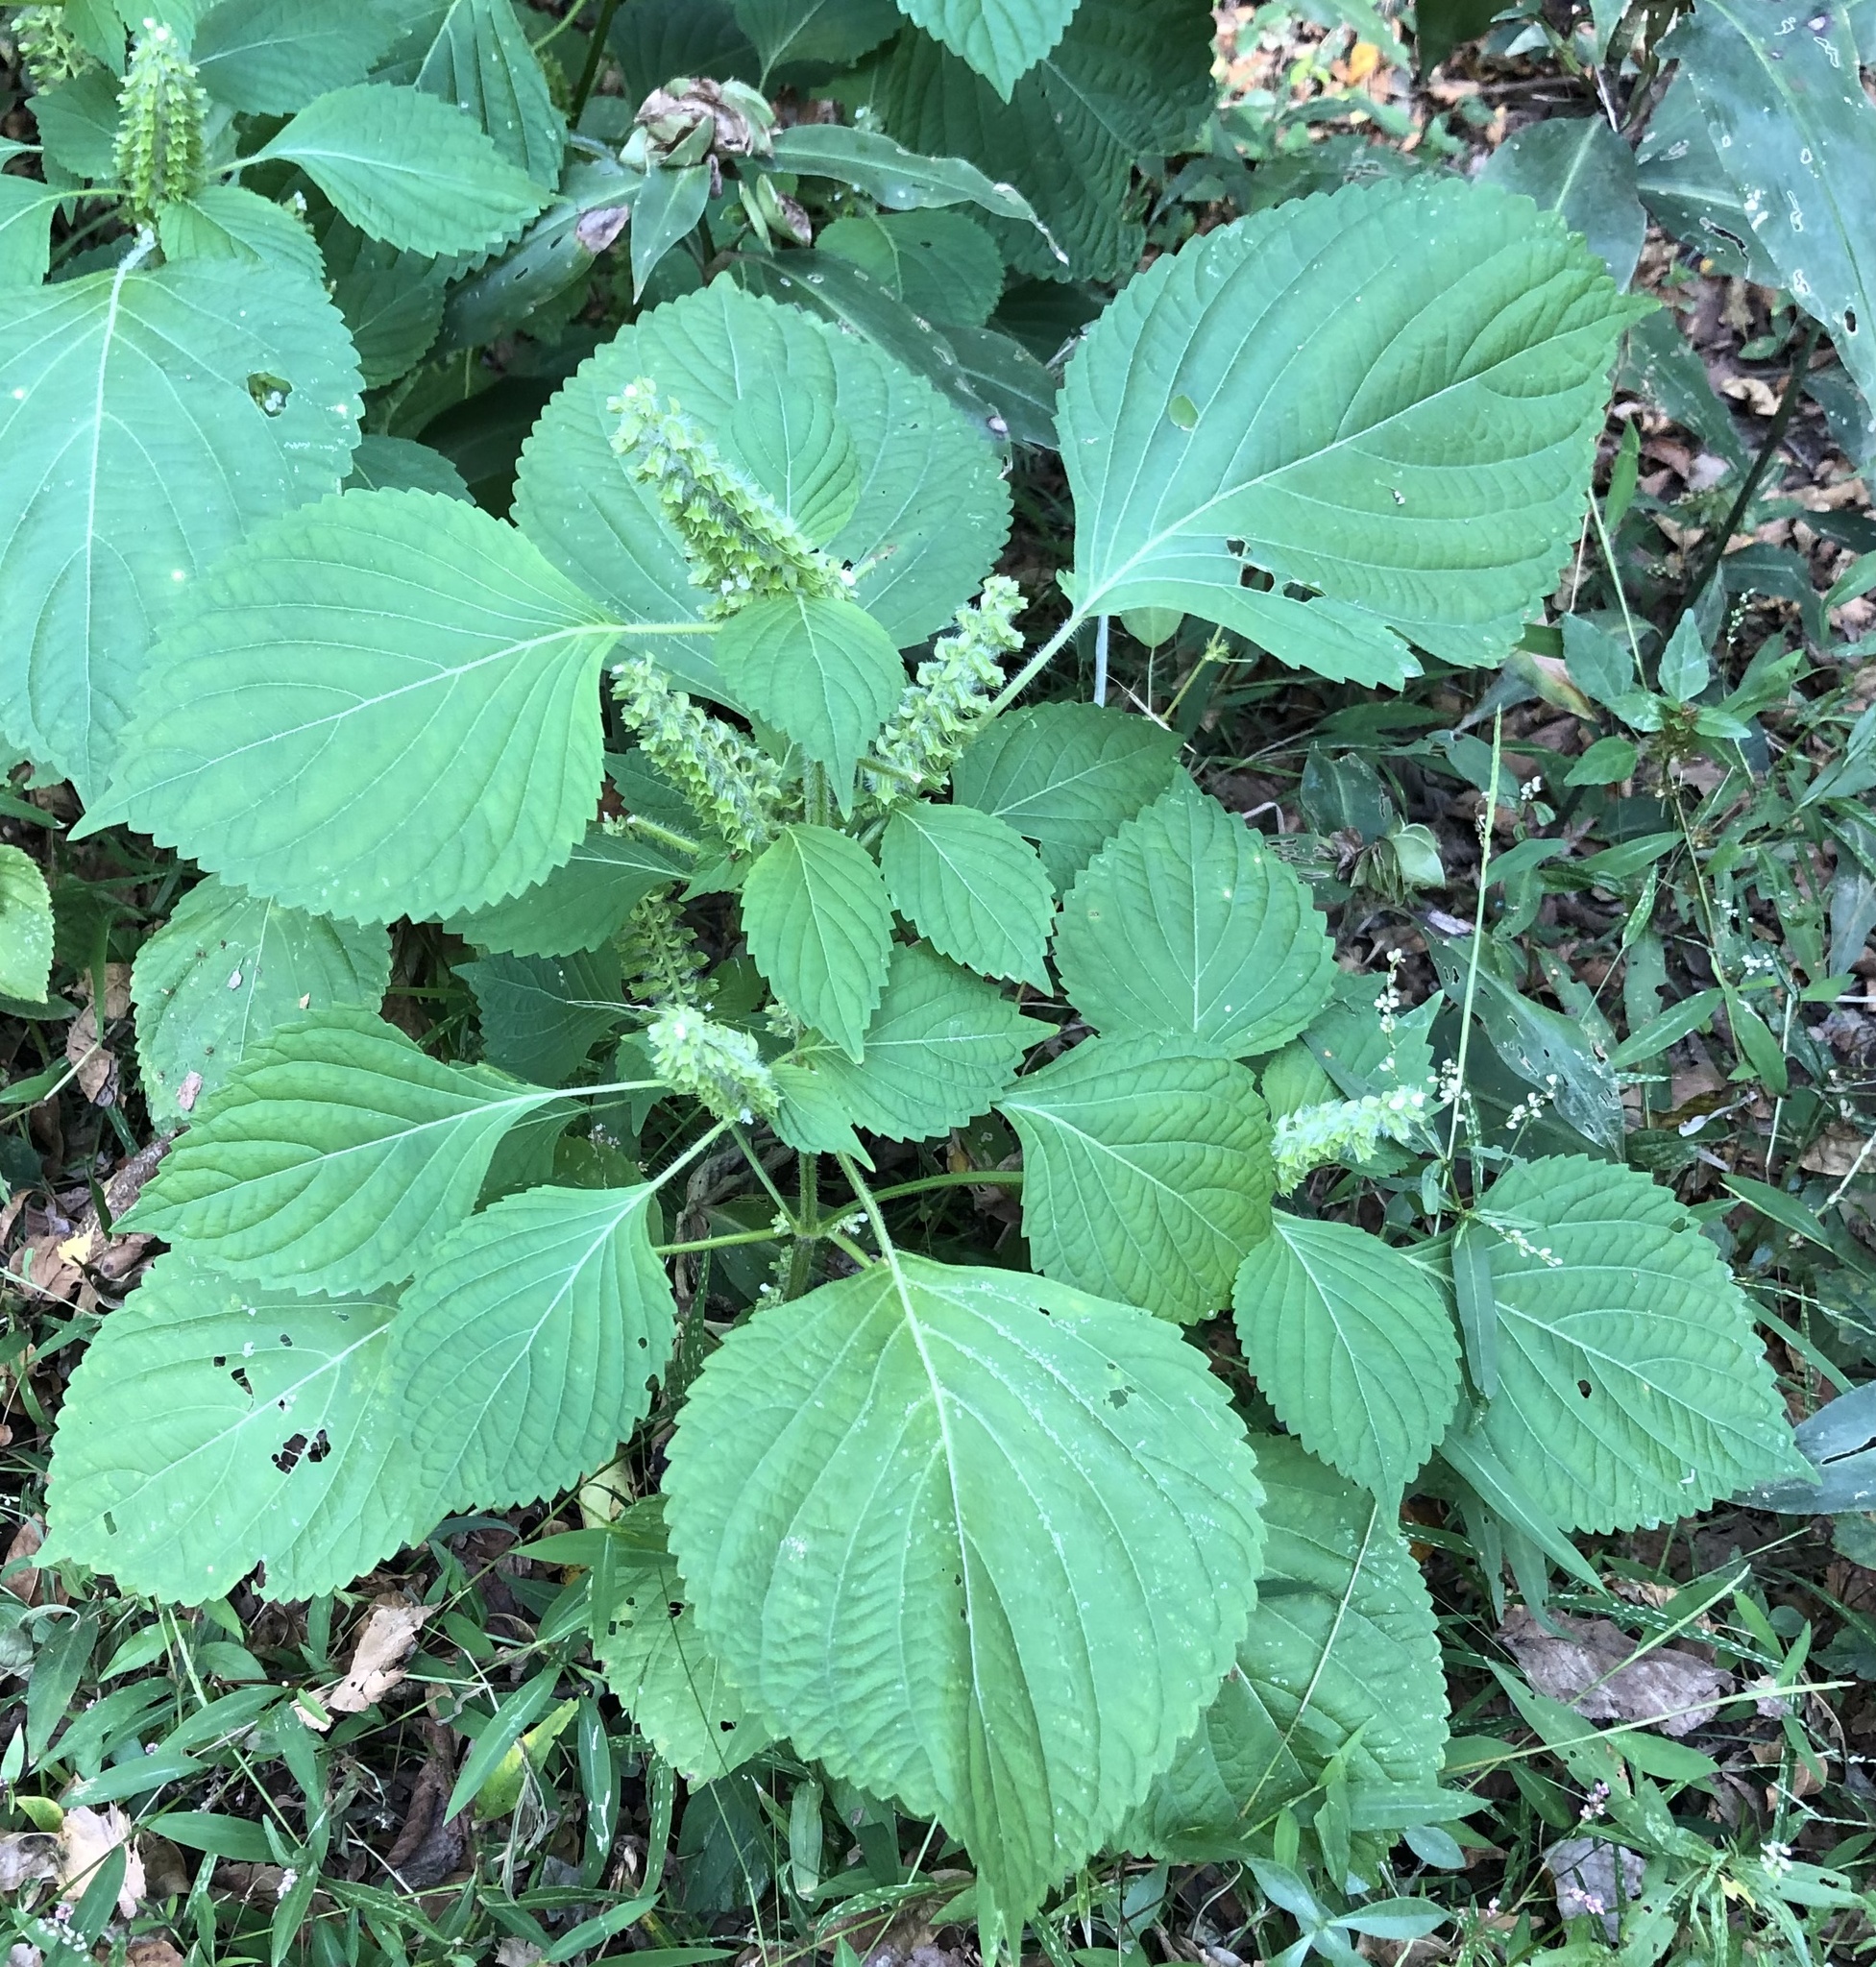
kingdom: Plantae
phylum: Tracheophyta
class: Magnoliopsida
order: Lamiales
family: Lamiaceae
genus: Perilla
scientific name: Perilla frutescens
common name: Perilla
